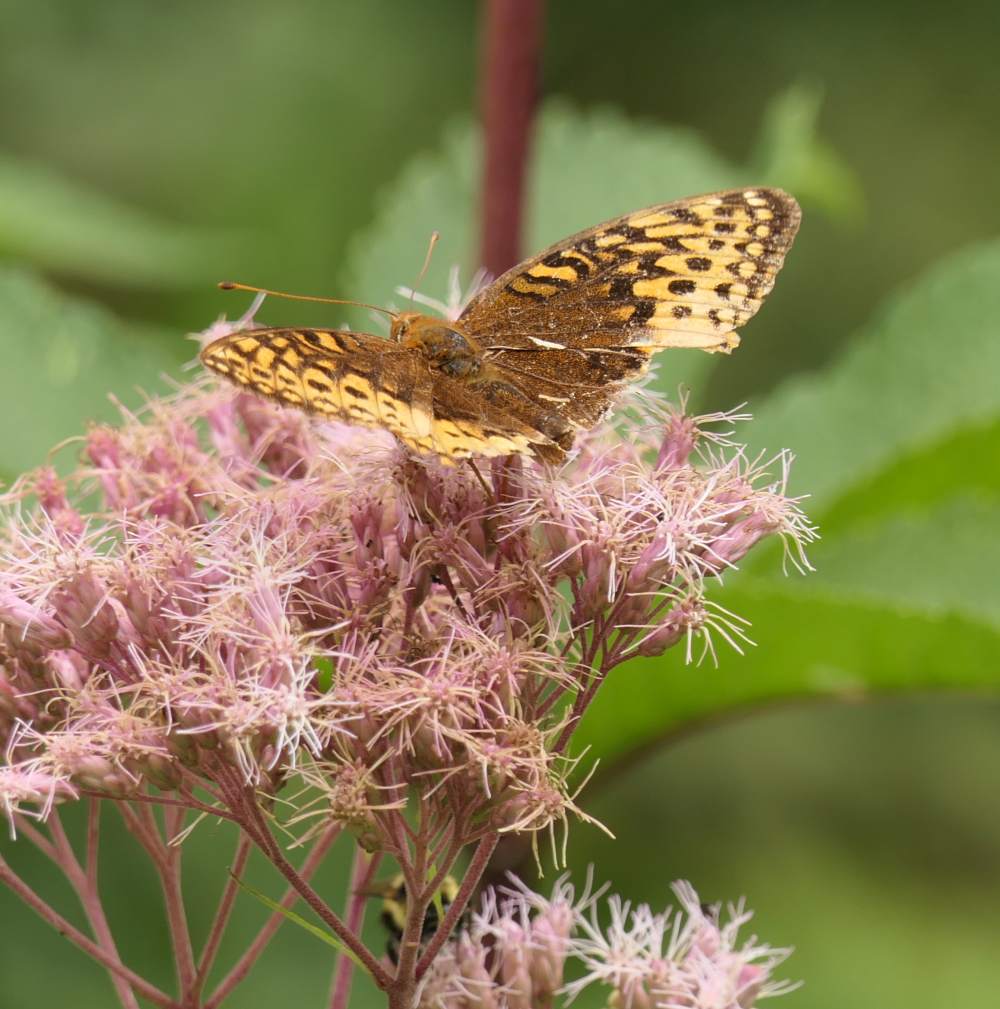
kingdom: Animalia
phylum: Arthropoda
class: Insecta
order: Lepidoptera
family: Nymphalidae
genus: Speyeria
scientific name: Speyeria cybele
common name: Great spangled fritillary
